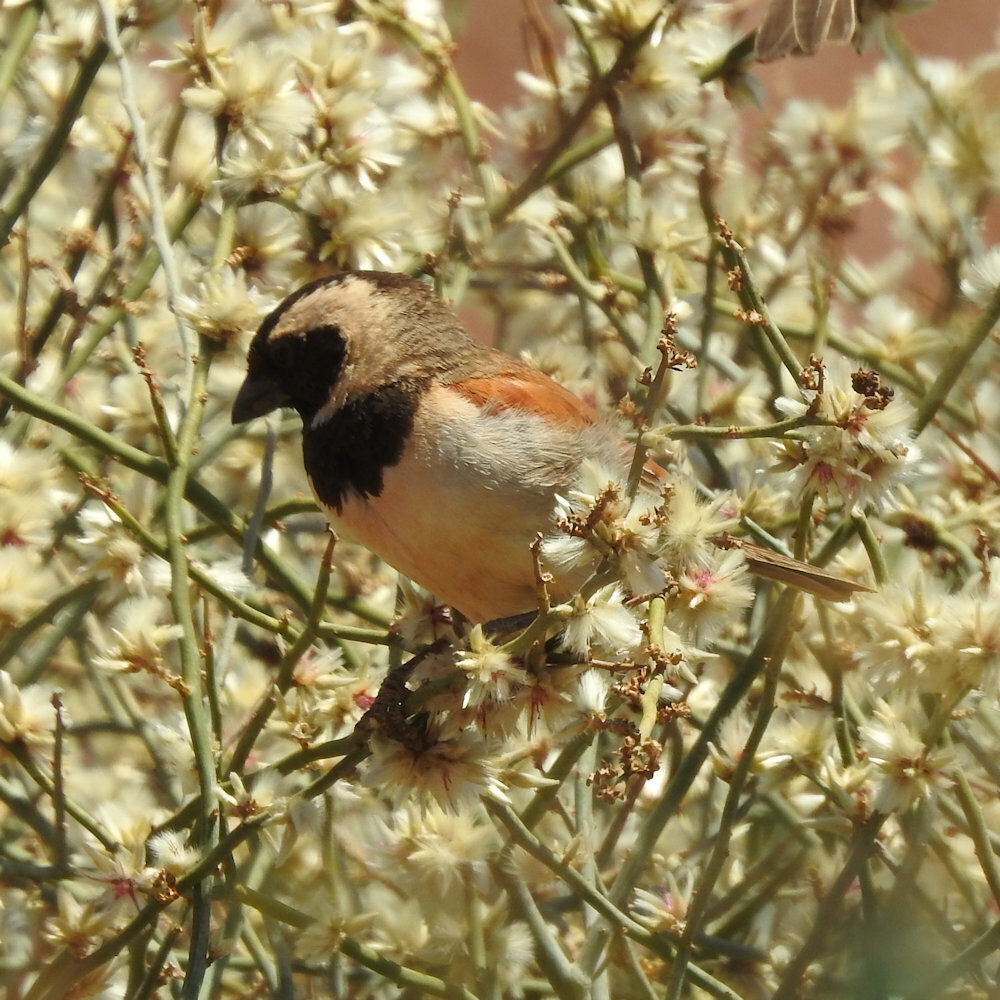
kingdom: Animalia
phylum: Chordata
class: Aves
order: Passeriformes
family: Passeridae
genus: Passer
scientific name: Passer melanurus
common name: Cape sparrow
